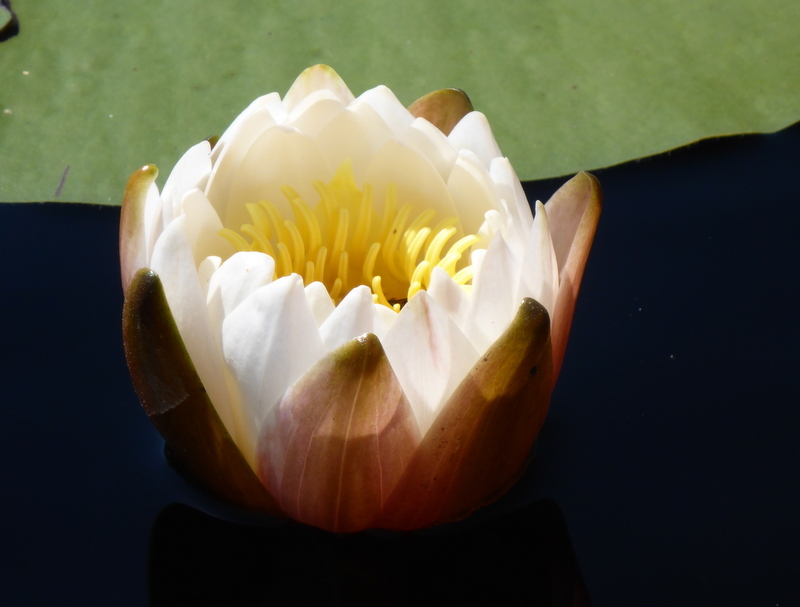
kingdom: Plantae
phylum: Tracheophyta
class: Magnoliopsida
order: Nymphaeales
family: Nymphaeaceae
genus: Nymphaea
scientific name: Nymphaea odorata
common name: Fragrant water-lily
